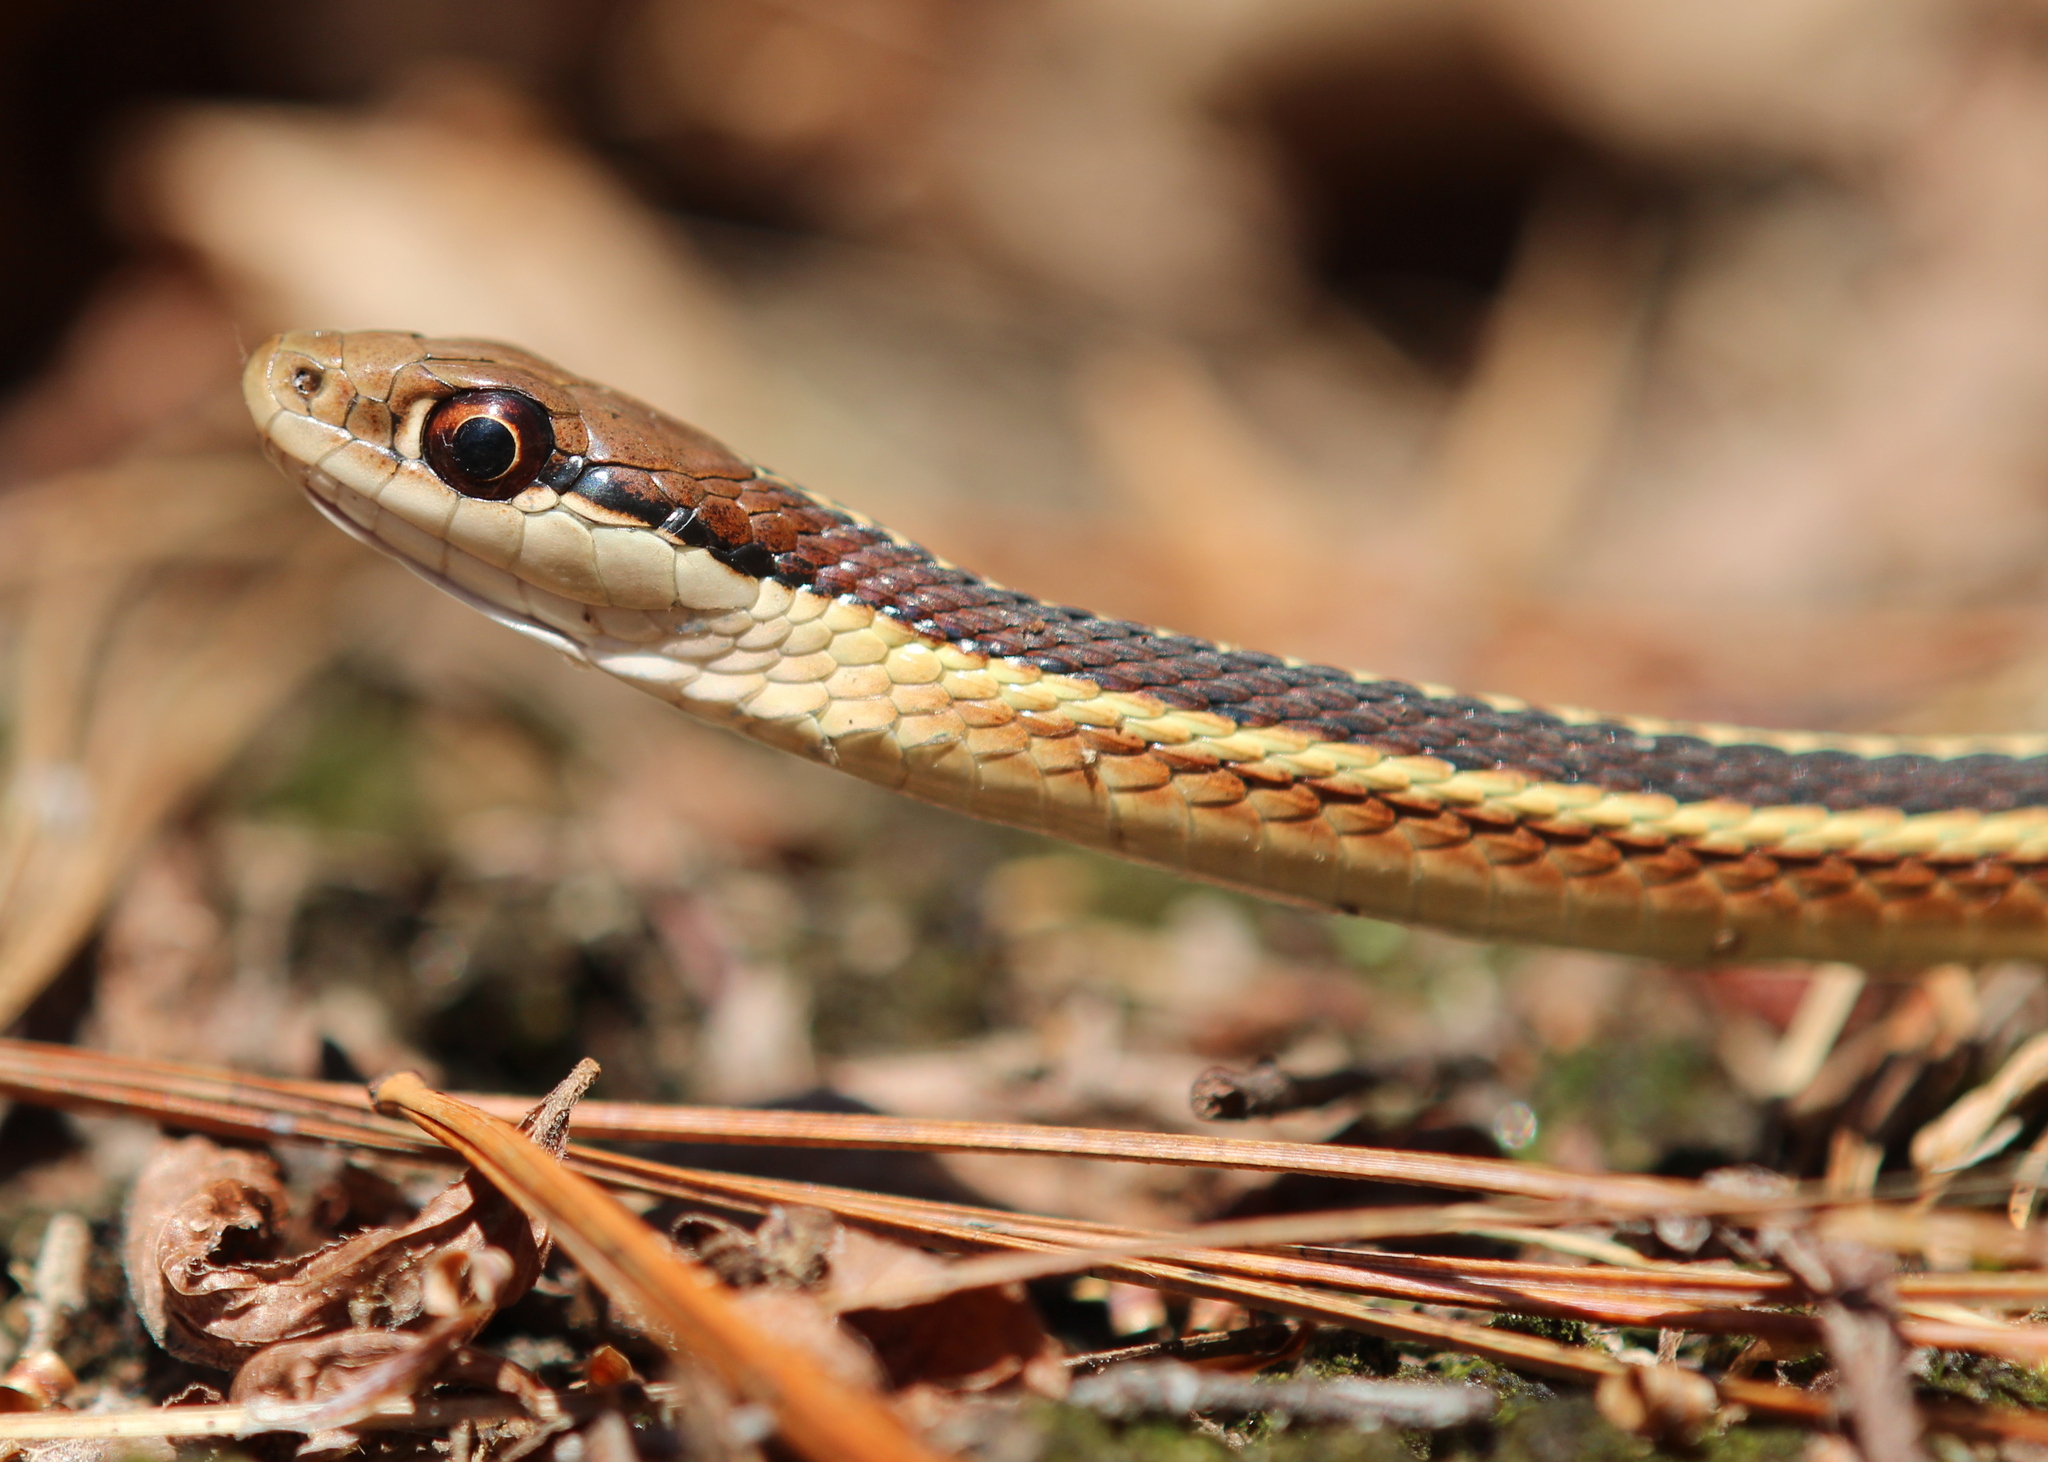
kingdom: Animalia
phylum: Chordata
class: Squamata
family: Colubridae
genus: Thamnophis
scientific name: Thamnophis saurita
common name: Eastern ribbonsnake
